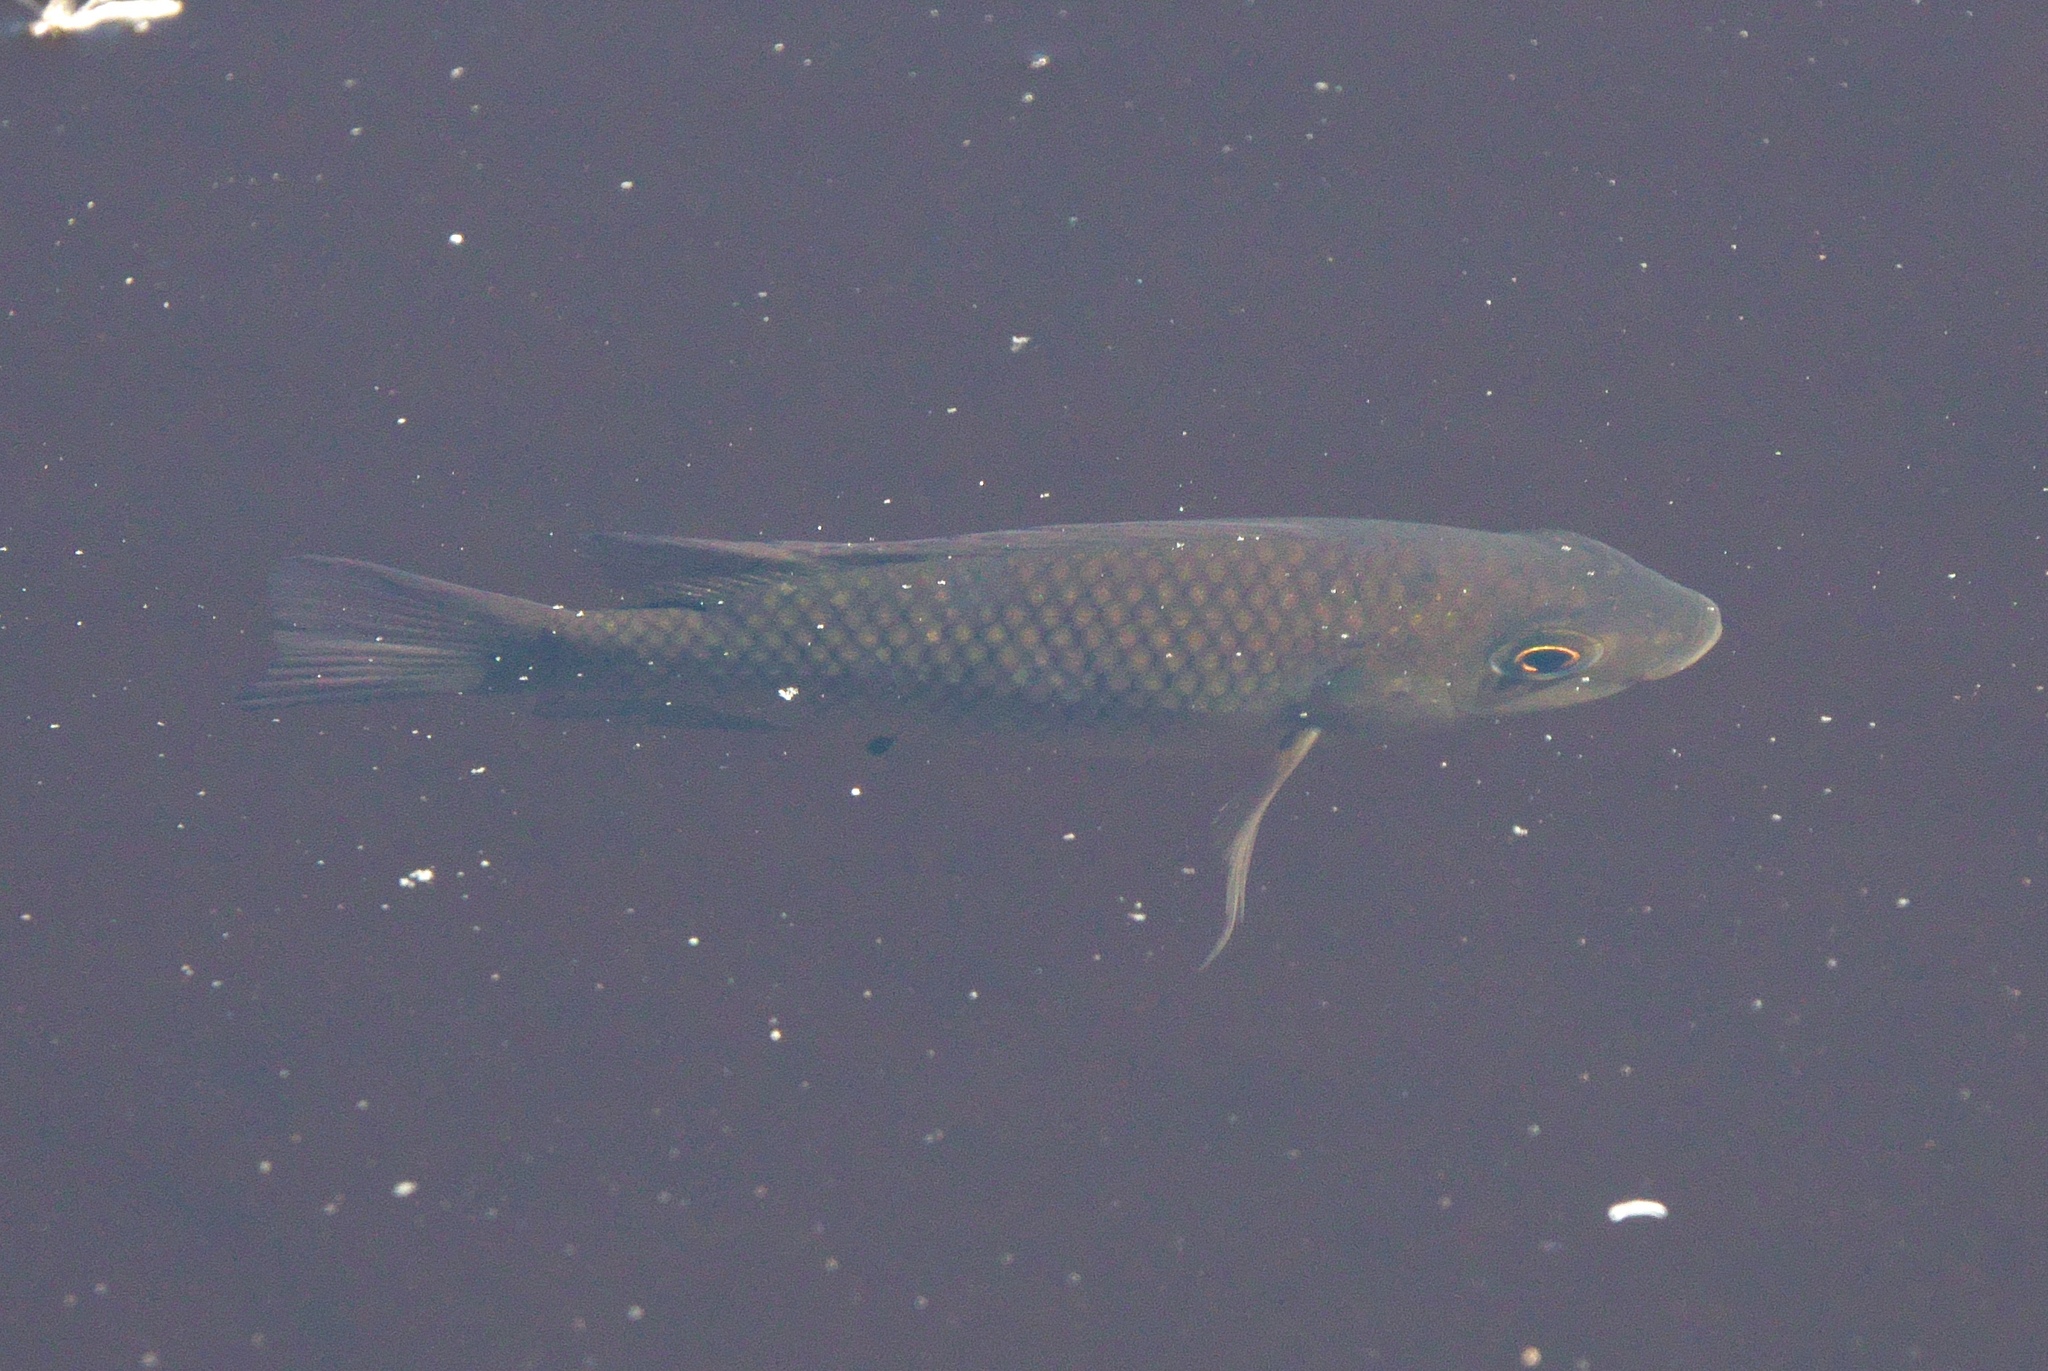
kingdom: Animalia
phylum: Chordata
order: Perciformes
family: Cichlidae
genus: Sarotherodon
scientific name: Sarotherodon melanotheron
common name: Blackchin tilapia
